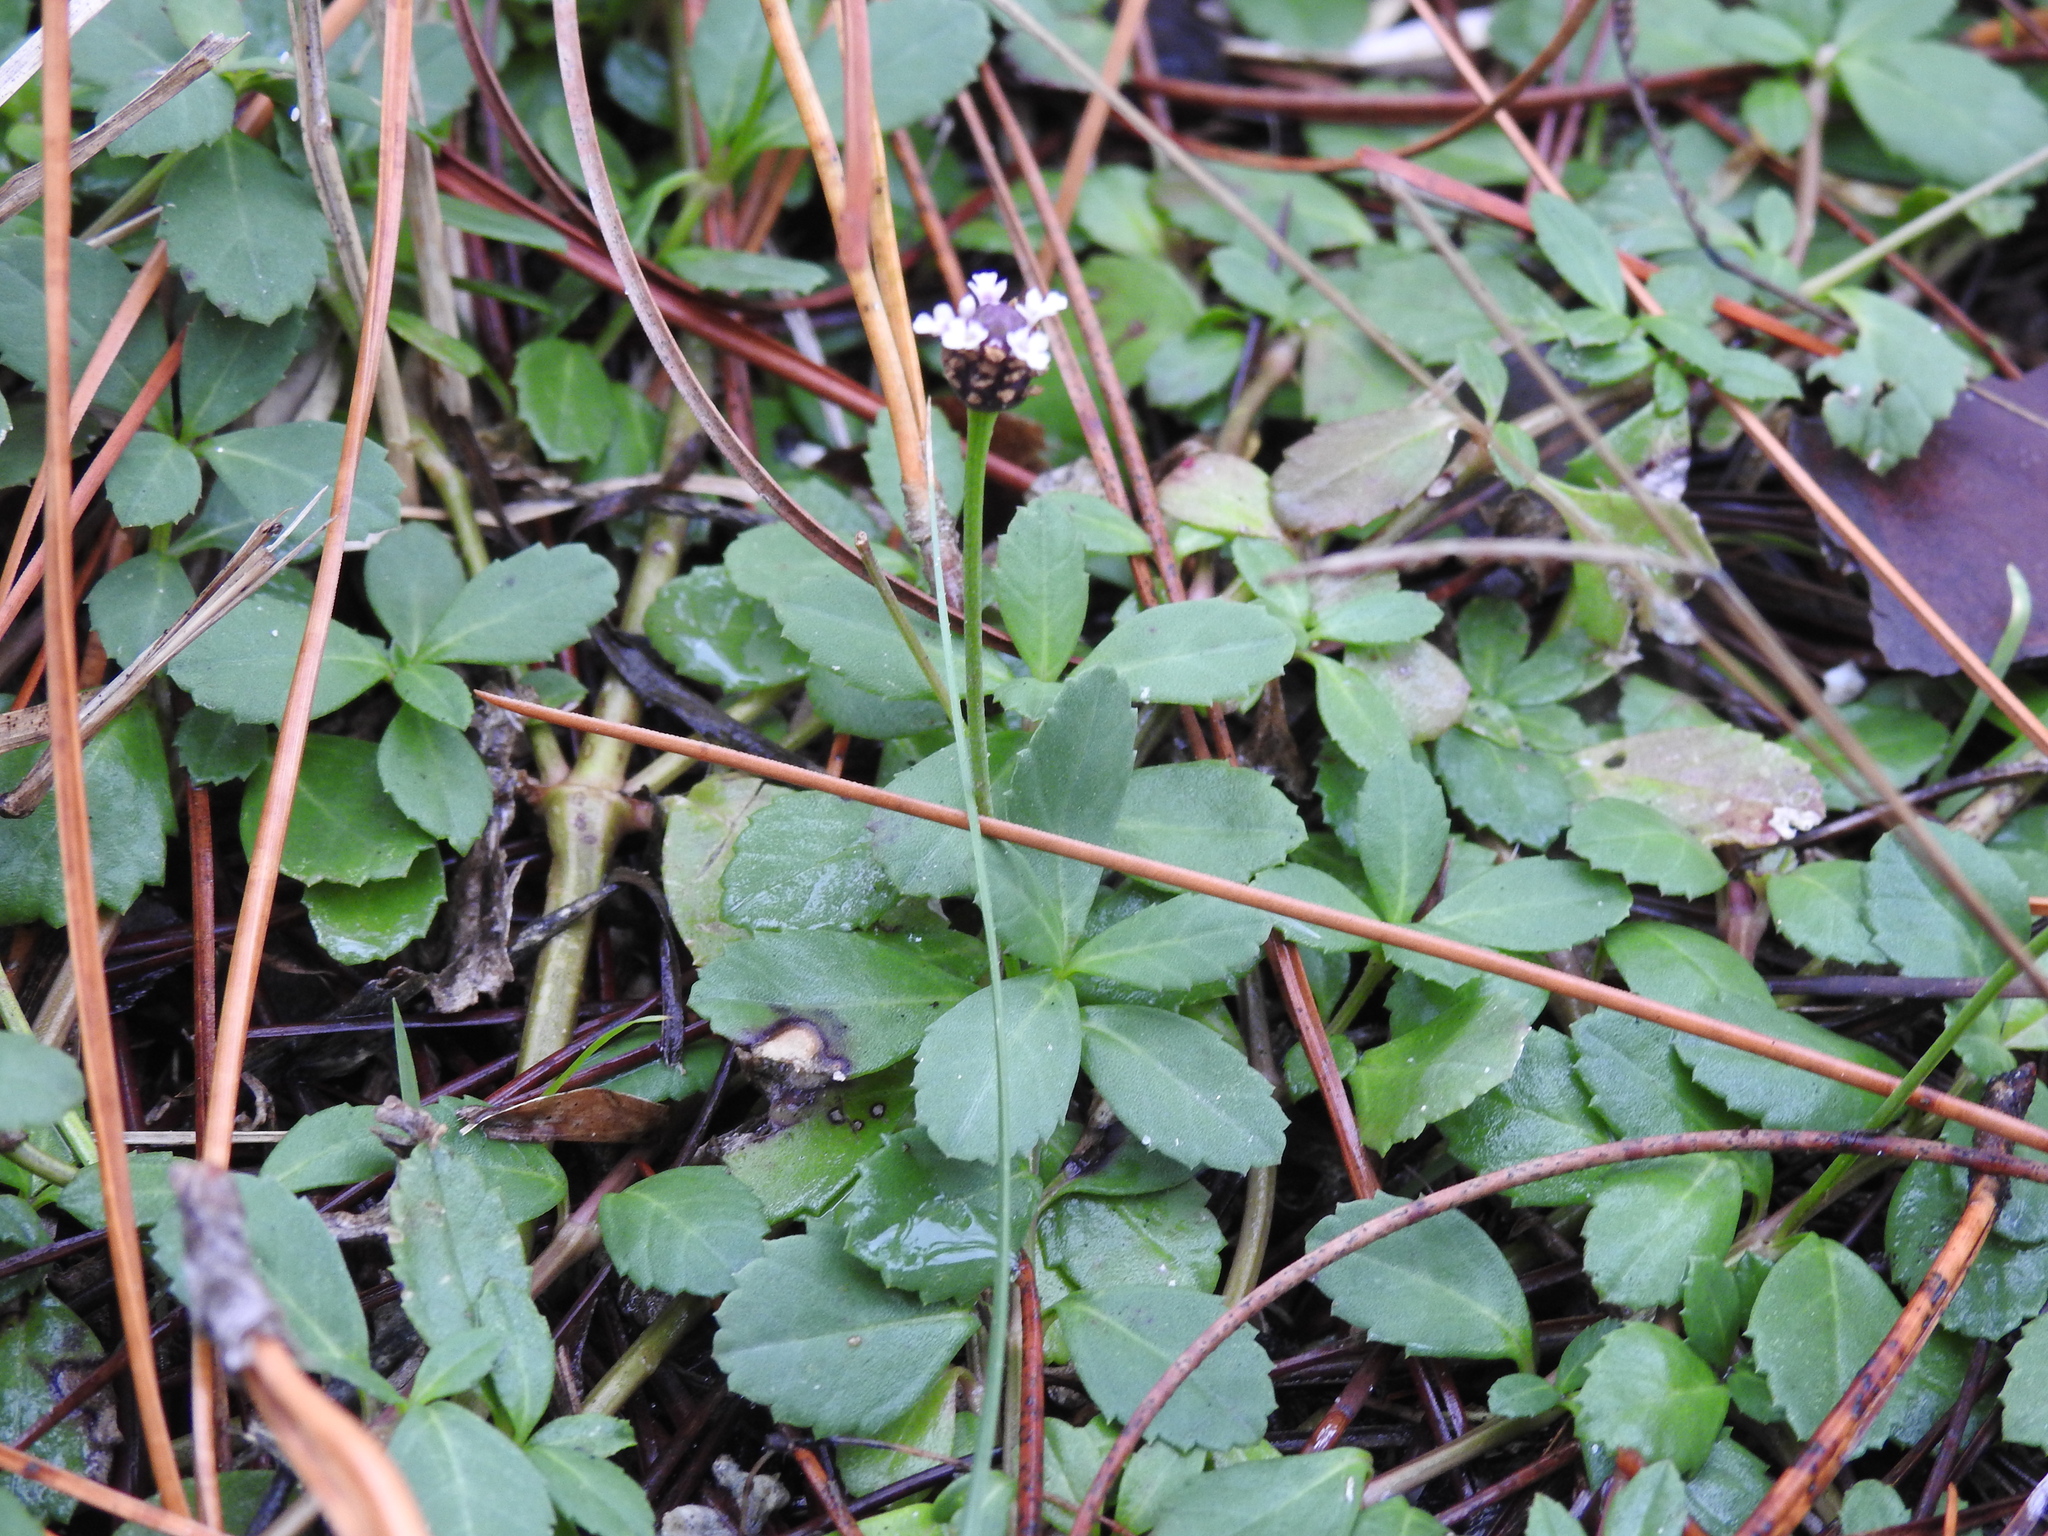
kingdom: Plantae
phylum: Tracheophyta
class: Magnoliopsida
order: Lamiales
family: Verbenaceae
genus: Phyla
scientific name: Phyla nodiflora
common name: Frogfruit
